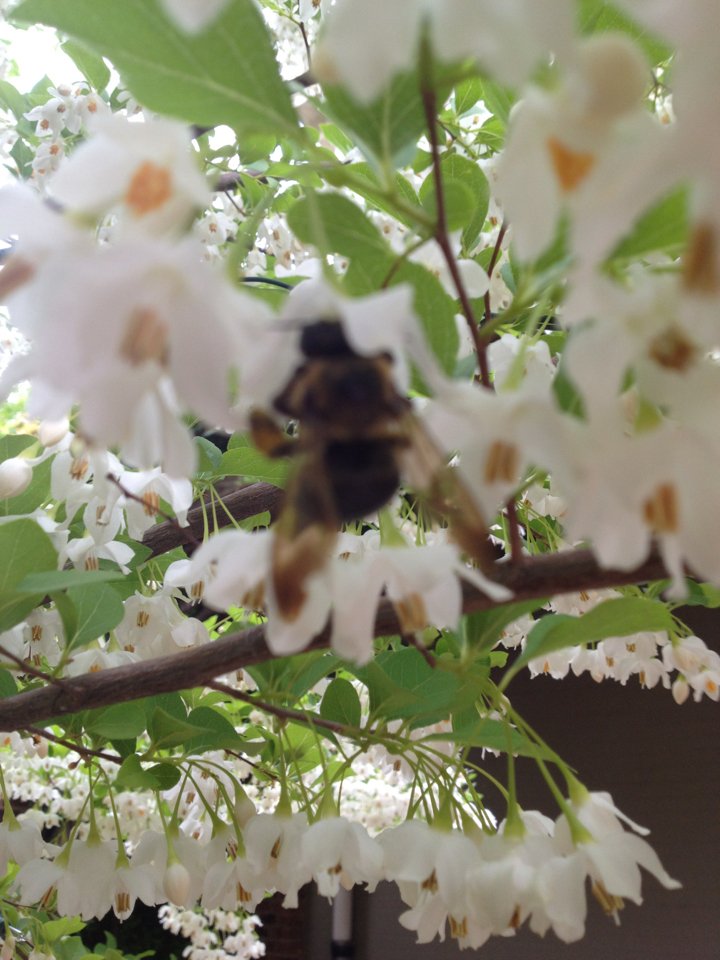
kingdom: Animalia
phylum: Arthropoda
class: Insecta
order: Hymenoptera
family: Apidae
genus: Xylocopa
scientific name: Xylocopa virginica
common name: Carpenter bee
